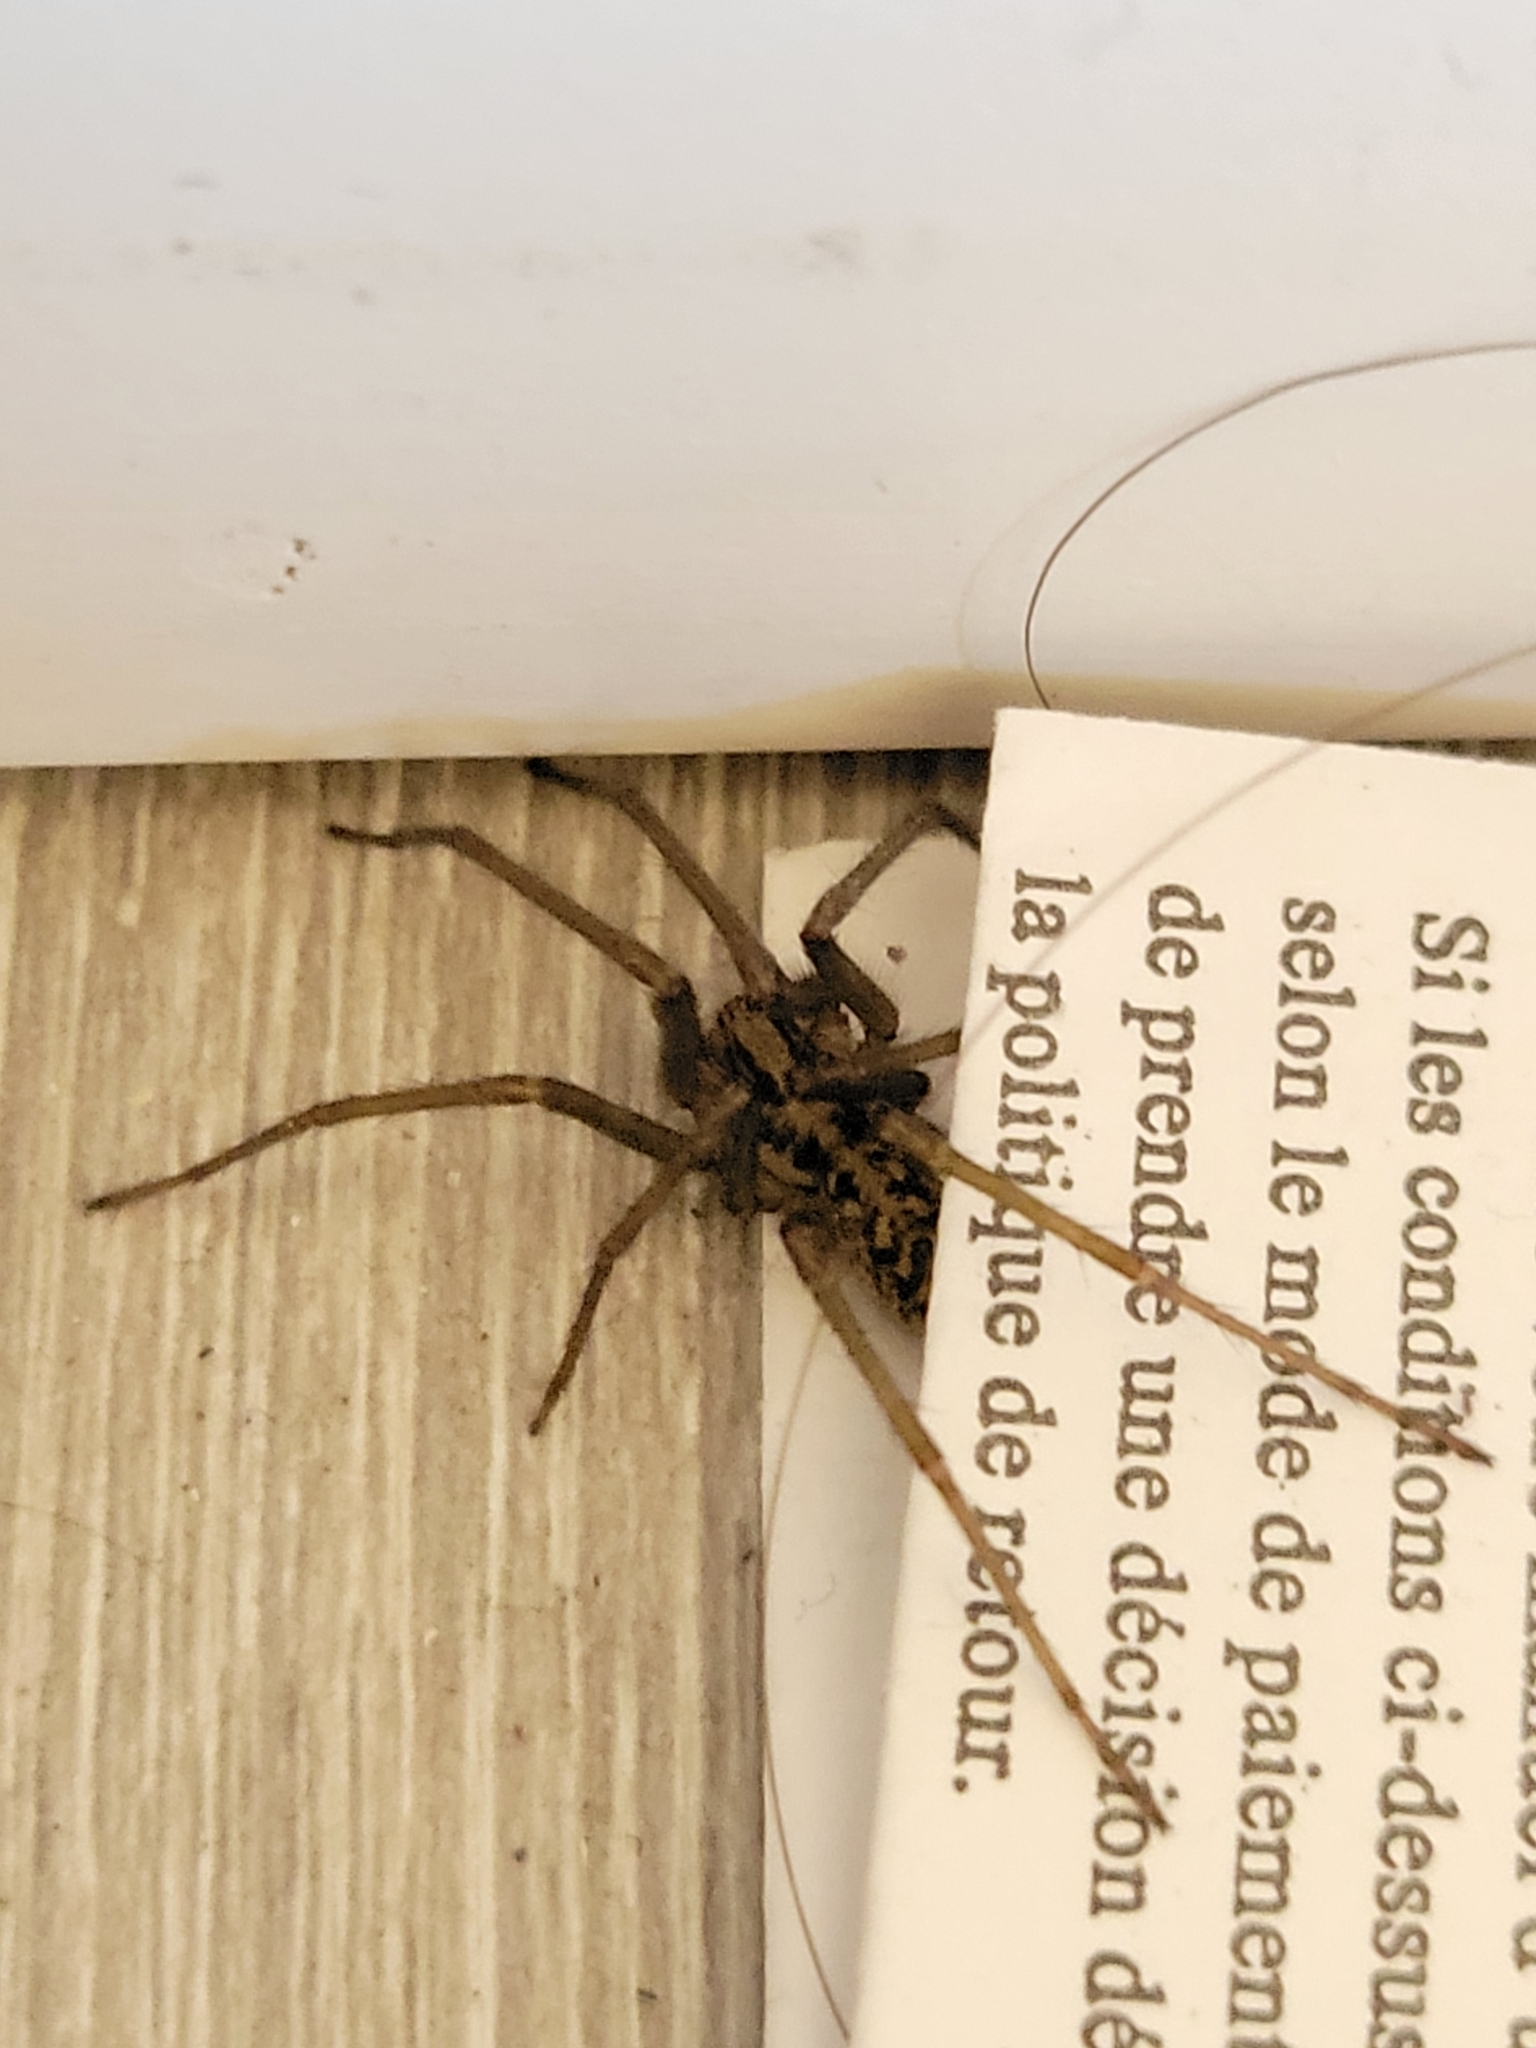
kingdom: Animalia
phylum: Arthropoda
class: Arachnida
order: Araneae
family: Agelenidae
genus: Eratigena
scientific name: Eratigena duellica
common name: Giant house spider
